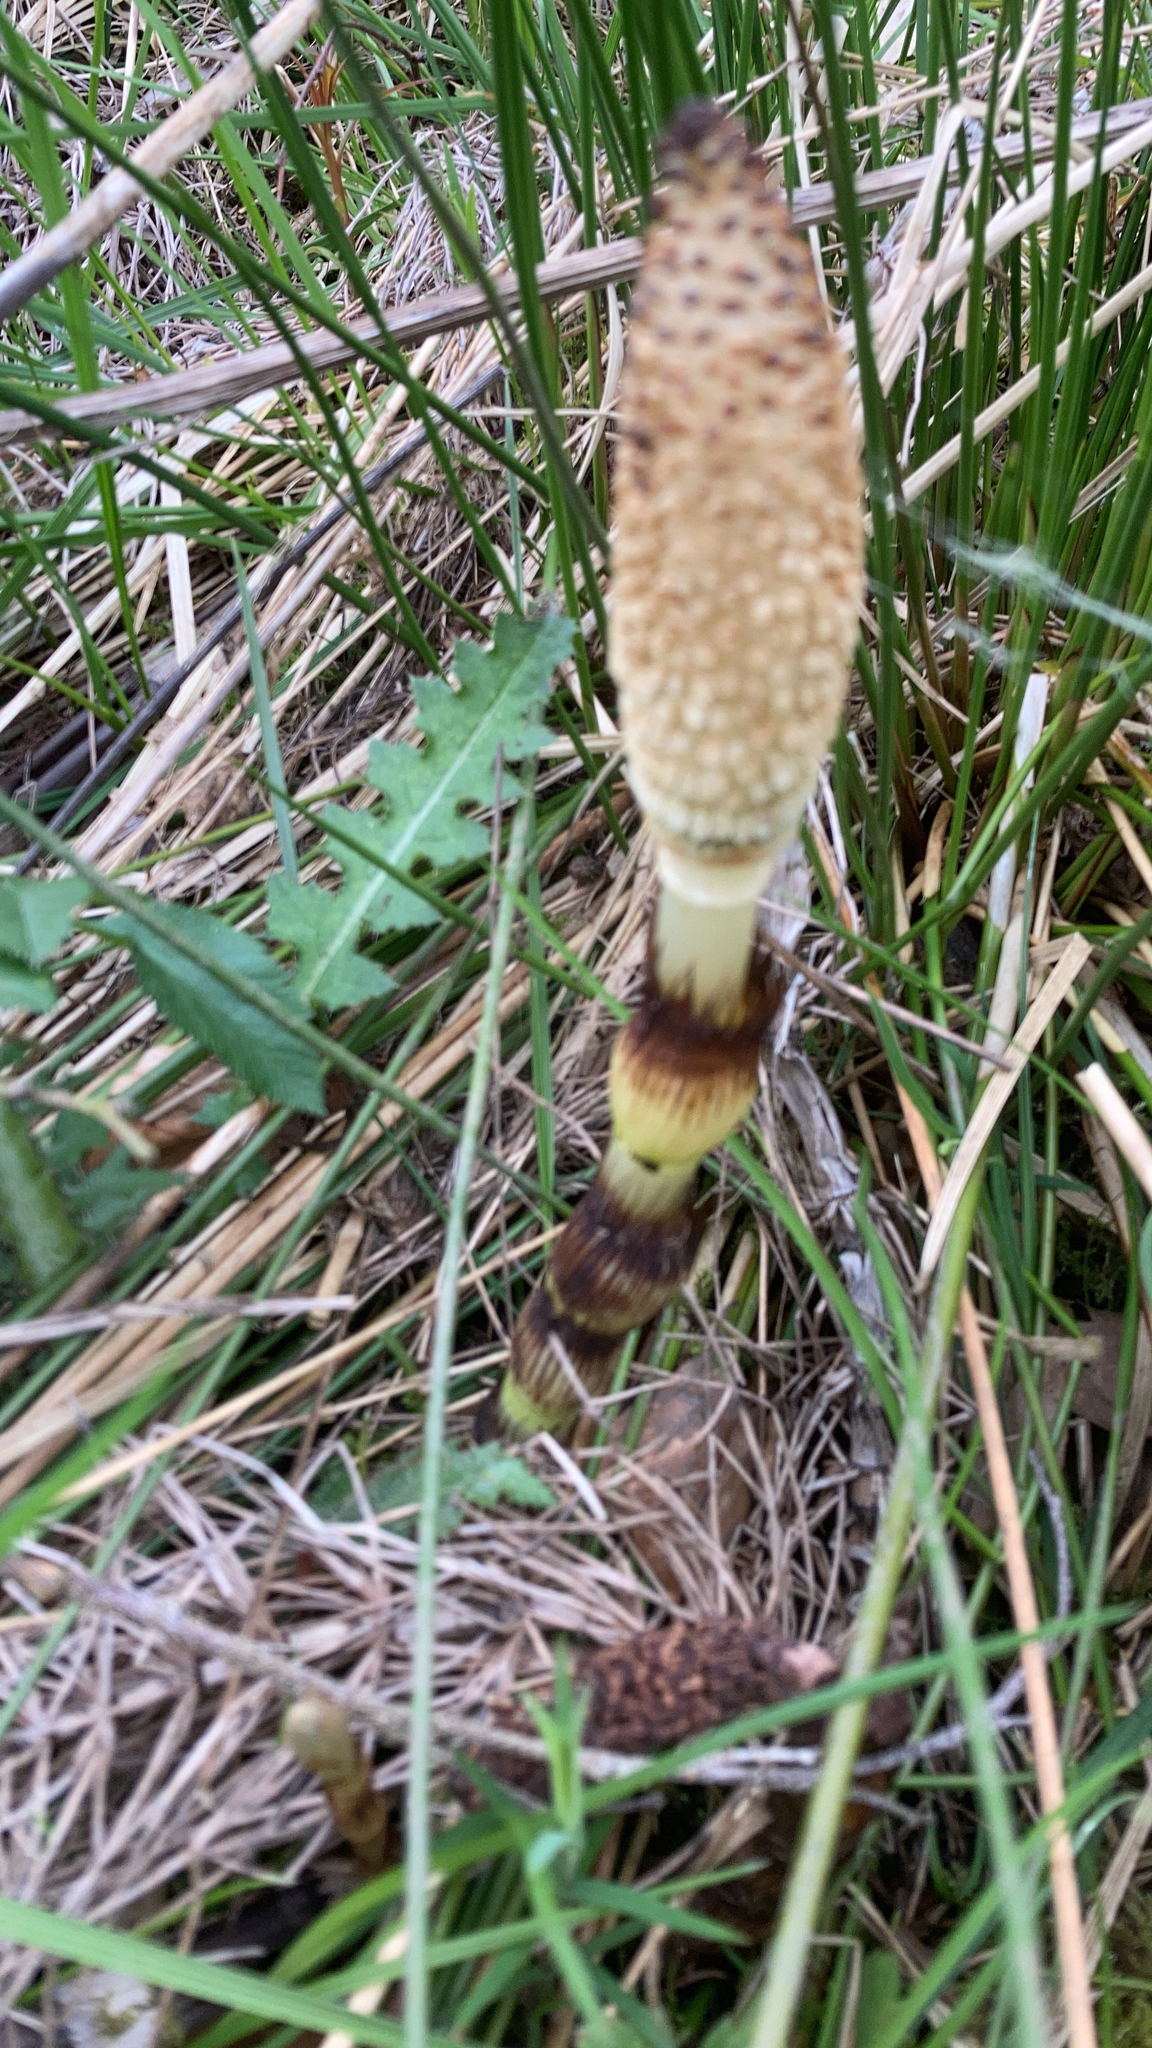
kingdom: Plantae
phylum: Tracheophyta
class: Polypodiopsida
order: Equisetales
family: Equisetaceae
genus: Equisetum
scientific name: Equisetum telmateia
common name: Great horsetail
